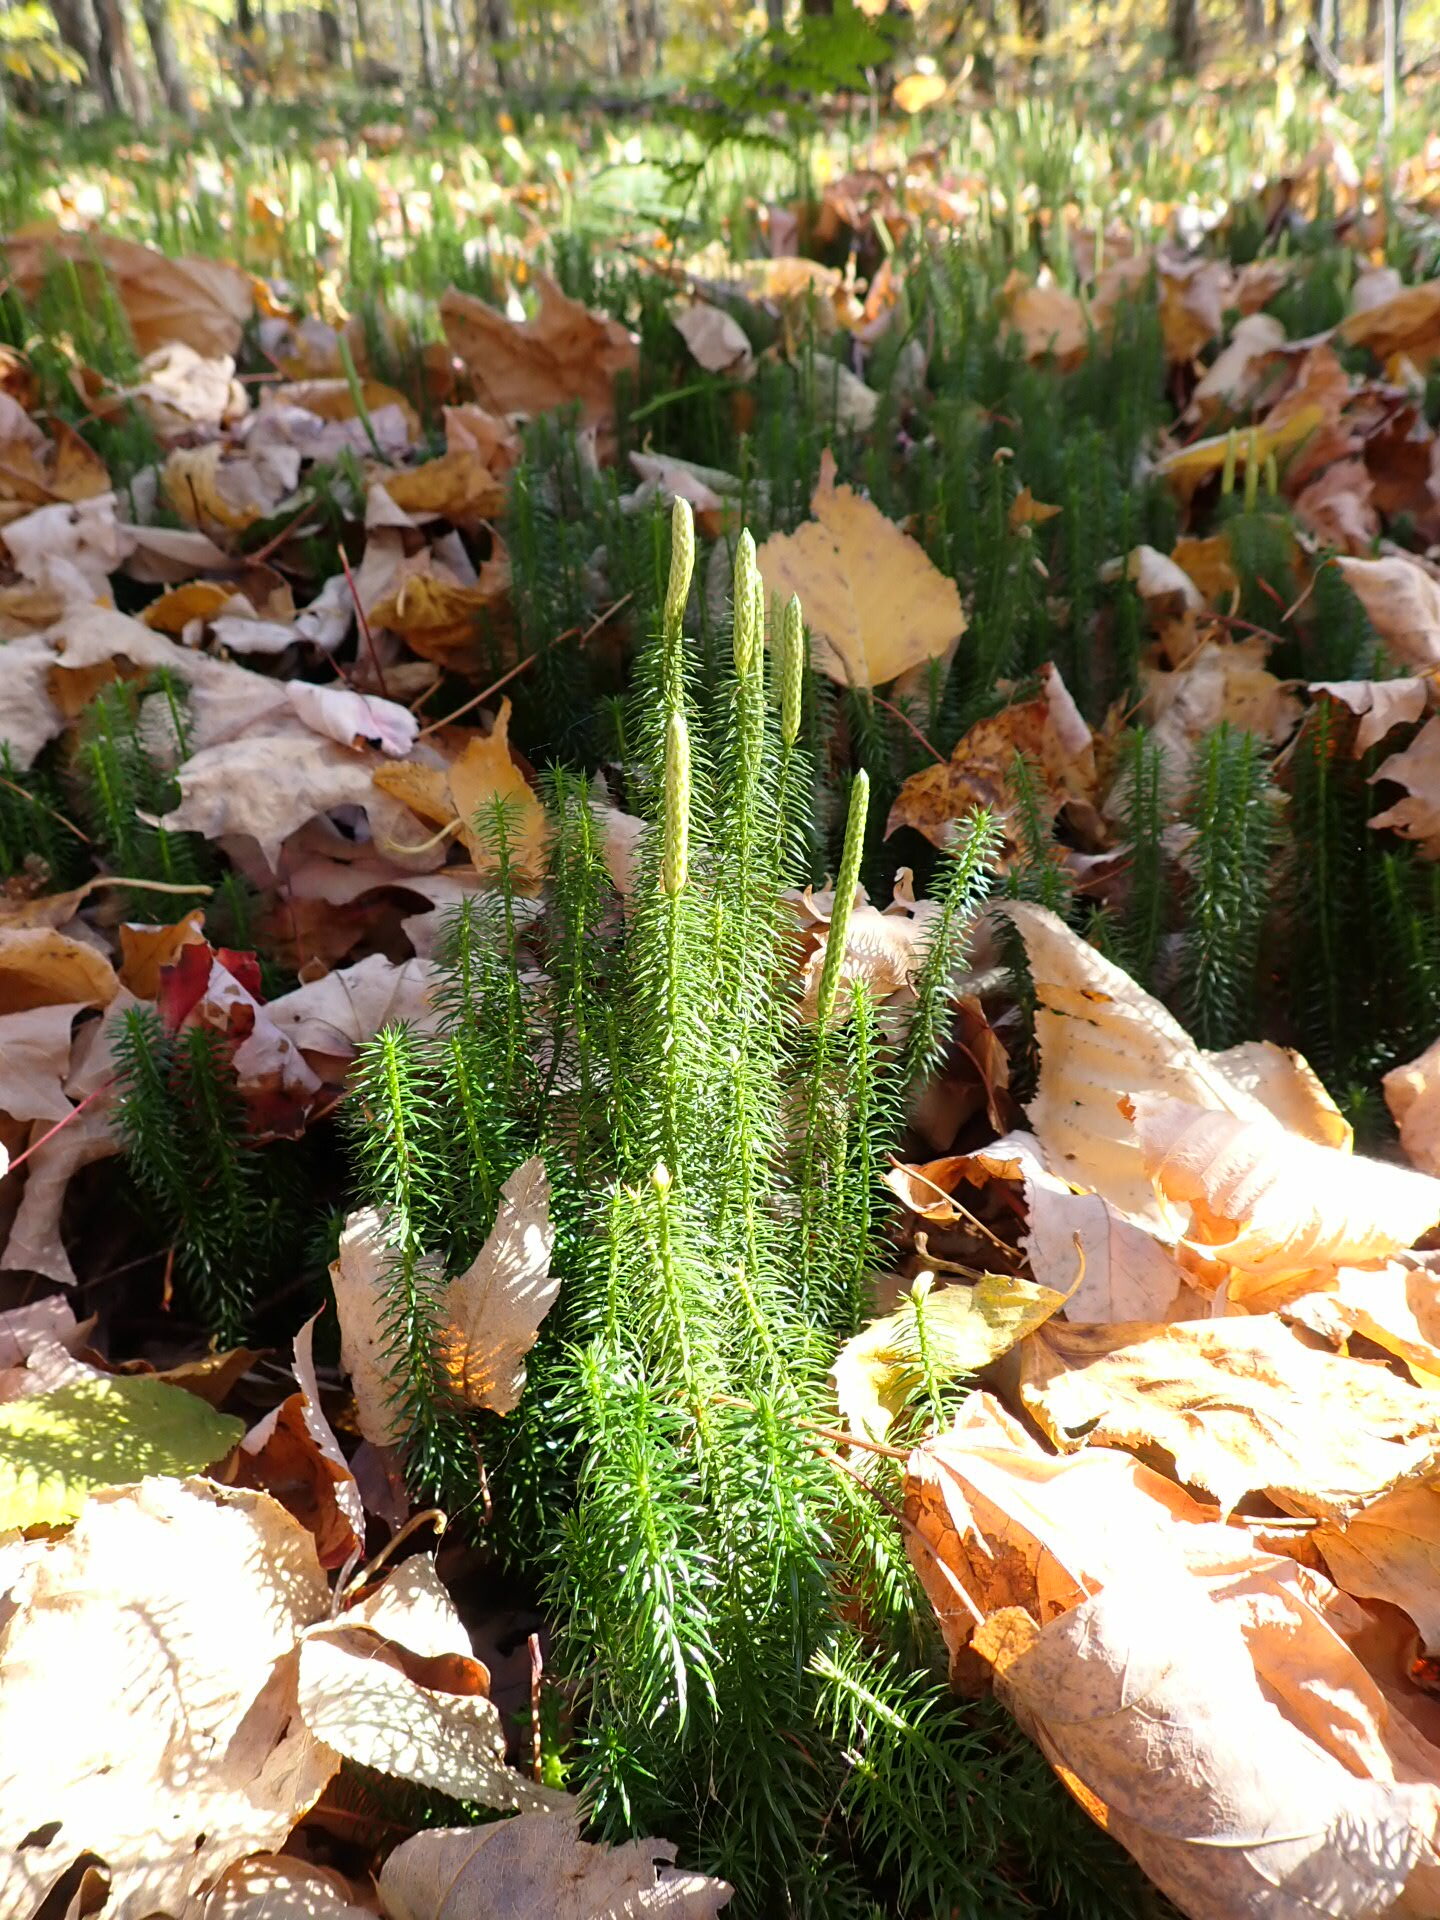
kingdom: Plantae
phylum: Tracheophyta
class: Lycopodiopsida
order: Lycopodiales
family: Lycopodiaceae
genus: Spinulum
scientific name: Spinulum annotinum
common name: Interrupted club-moss
